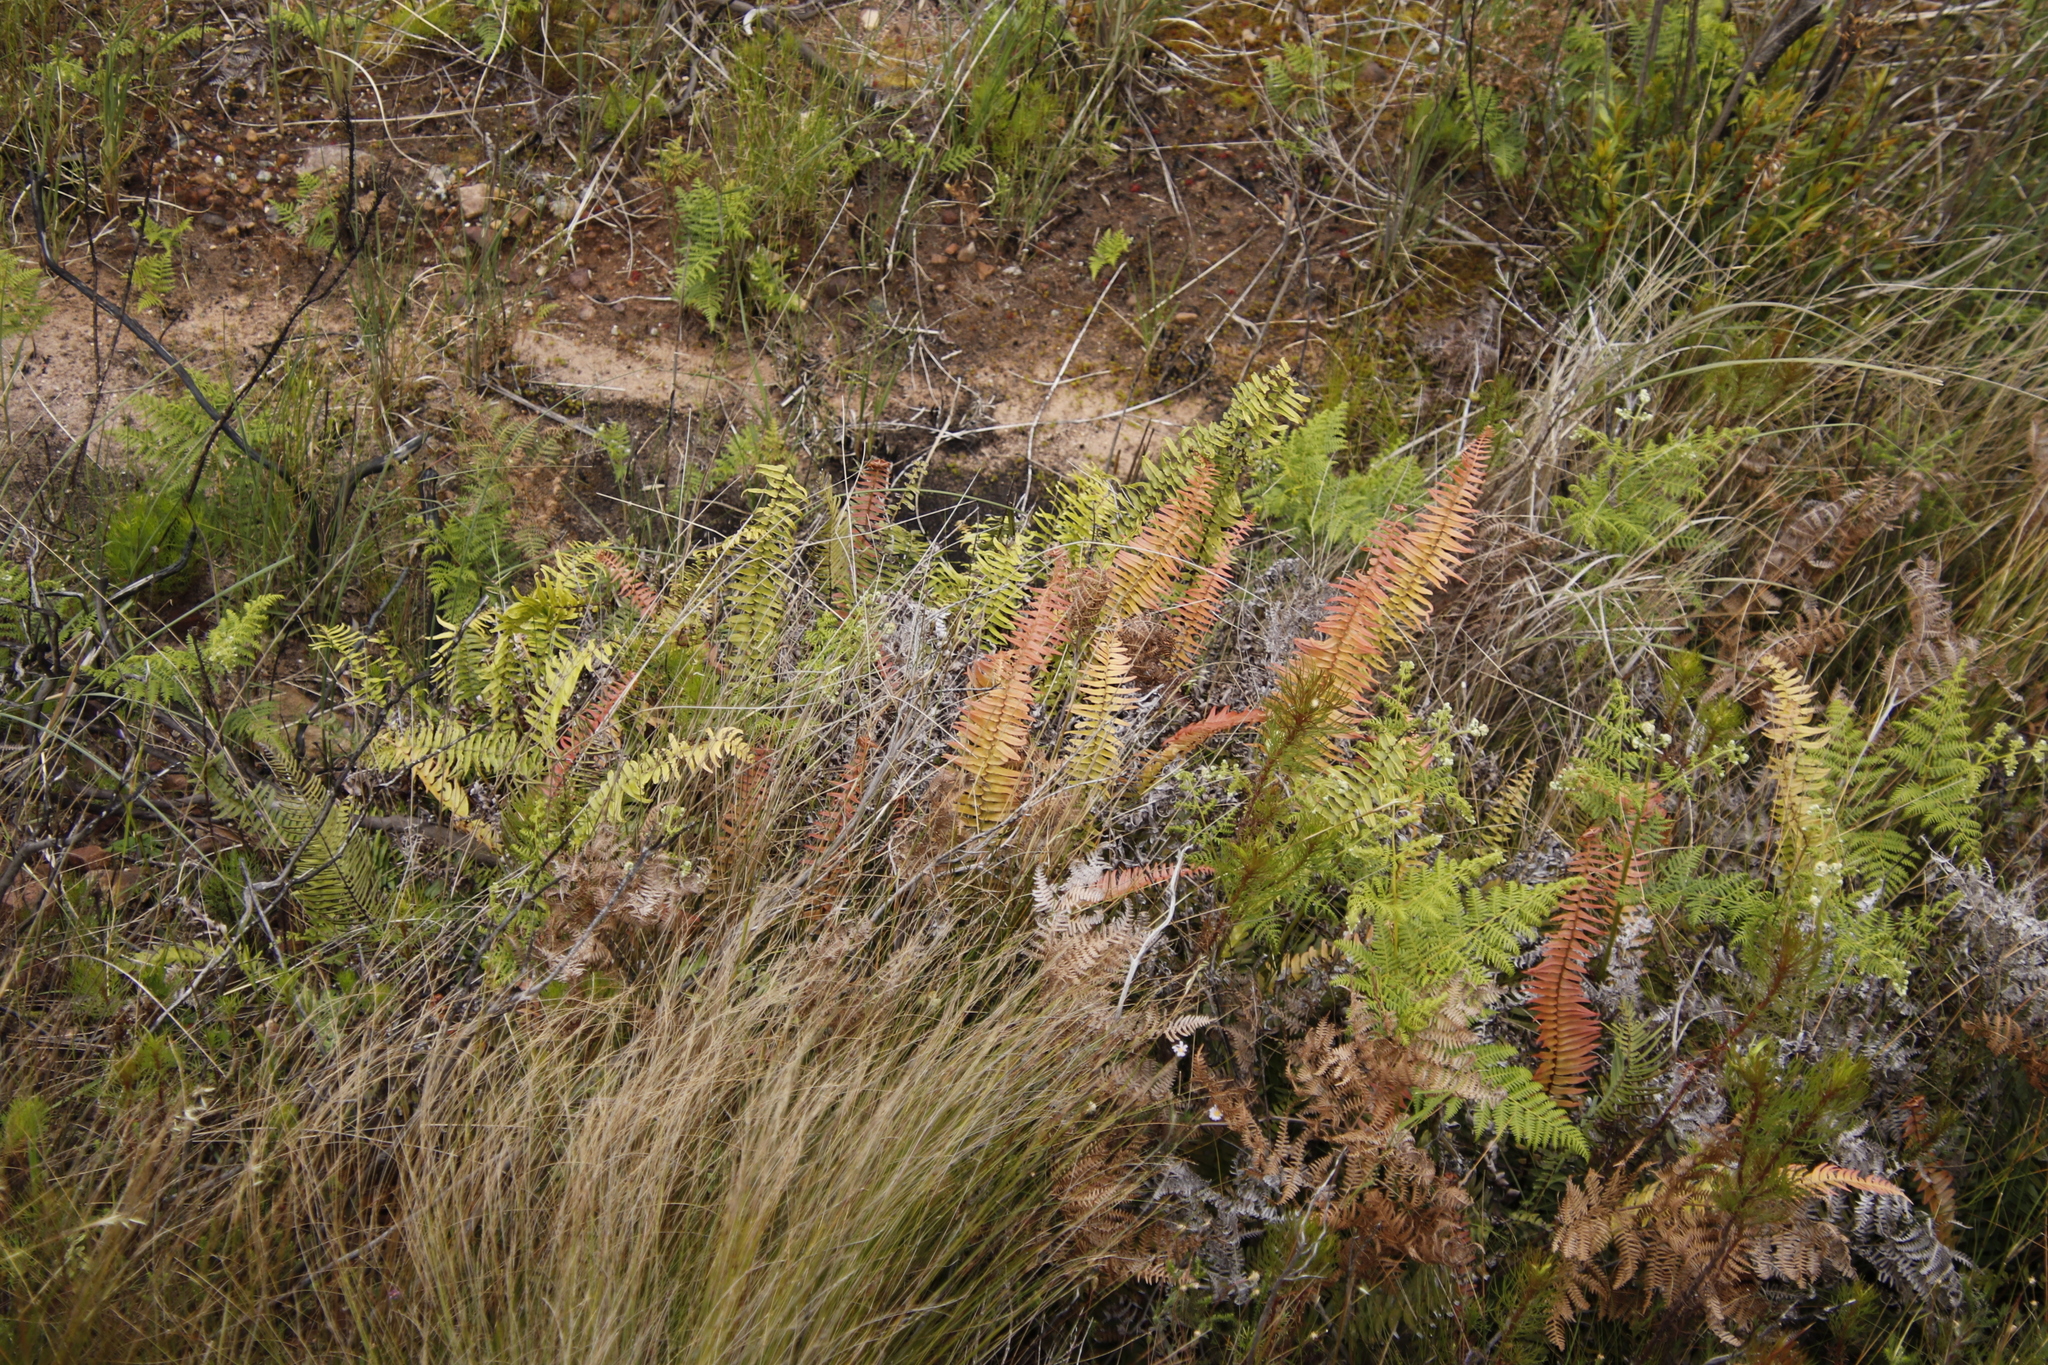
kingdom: Plantae
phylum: Tracheophyta
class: Polypodiopsida
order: Polypodiales
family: Blechnaceae
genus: Blechnum
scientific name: Blechnum punctulatum
